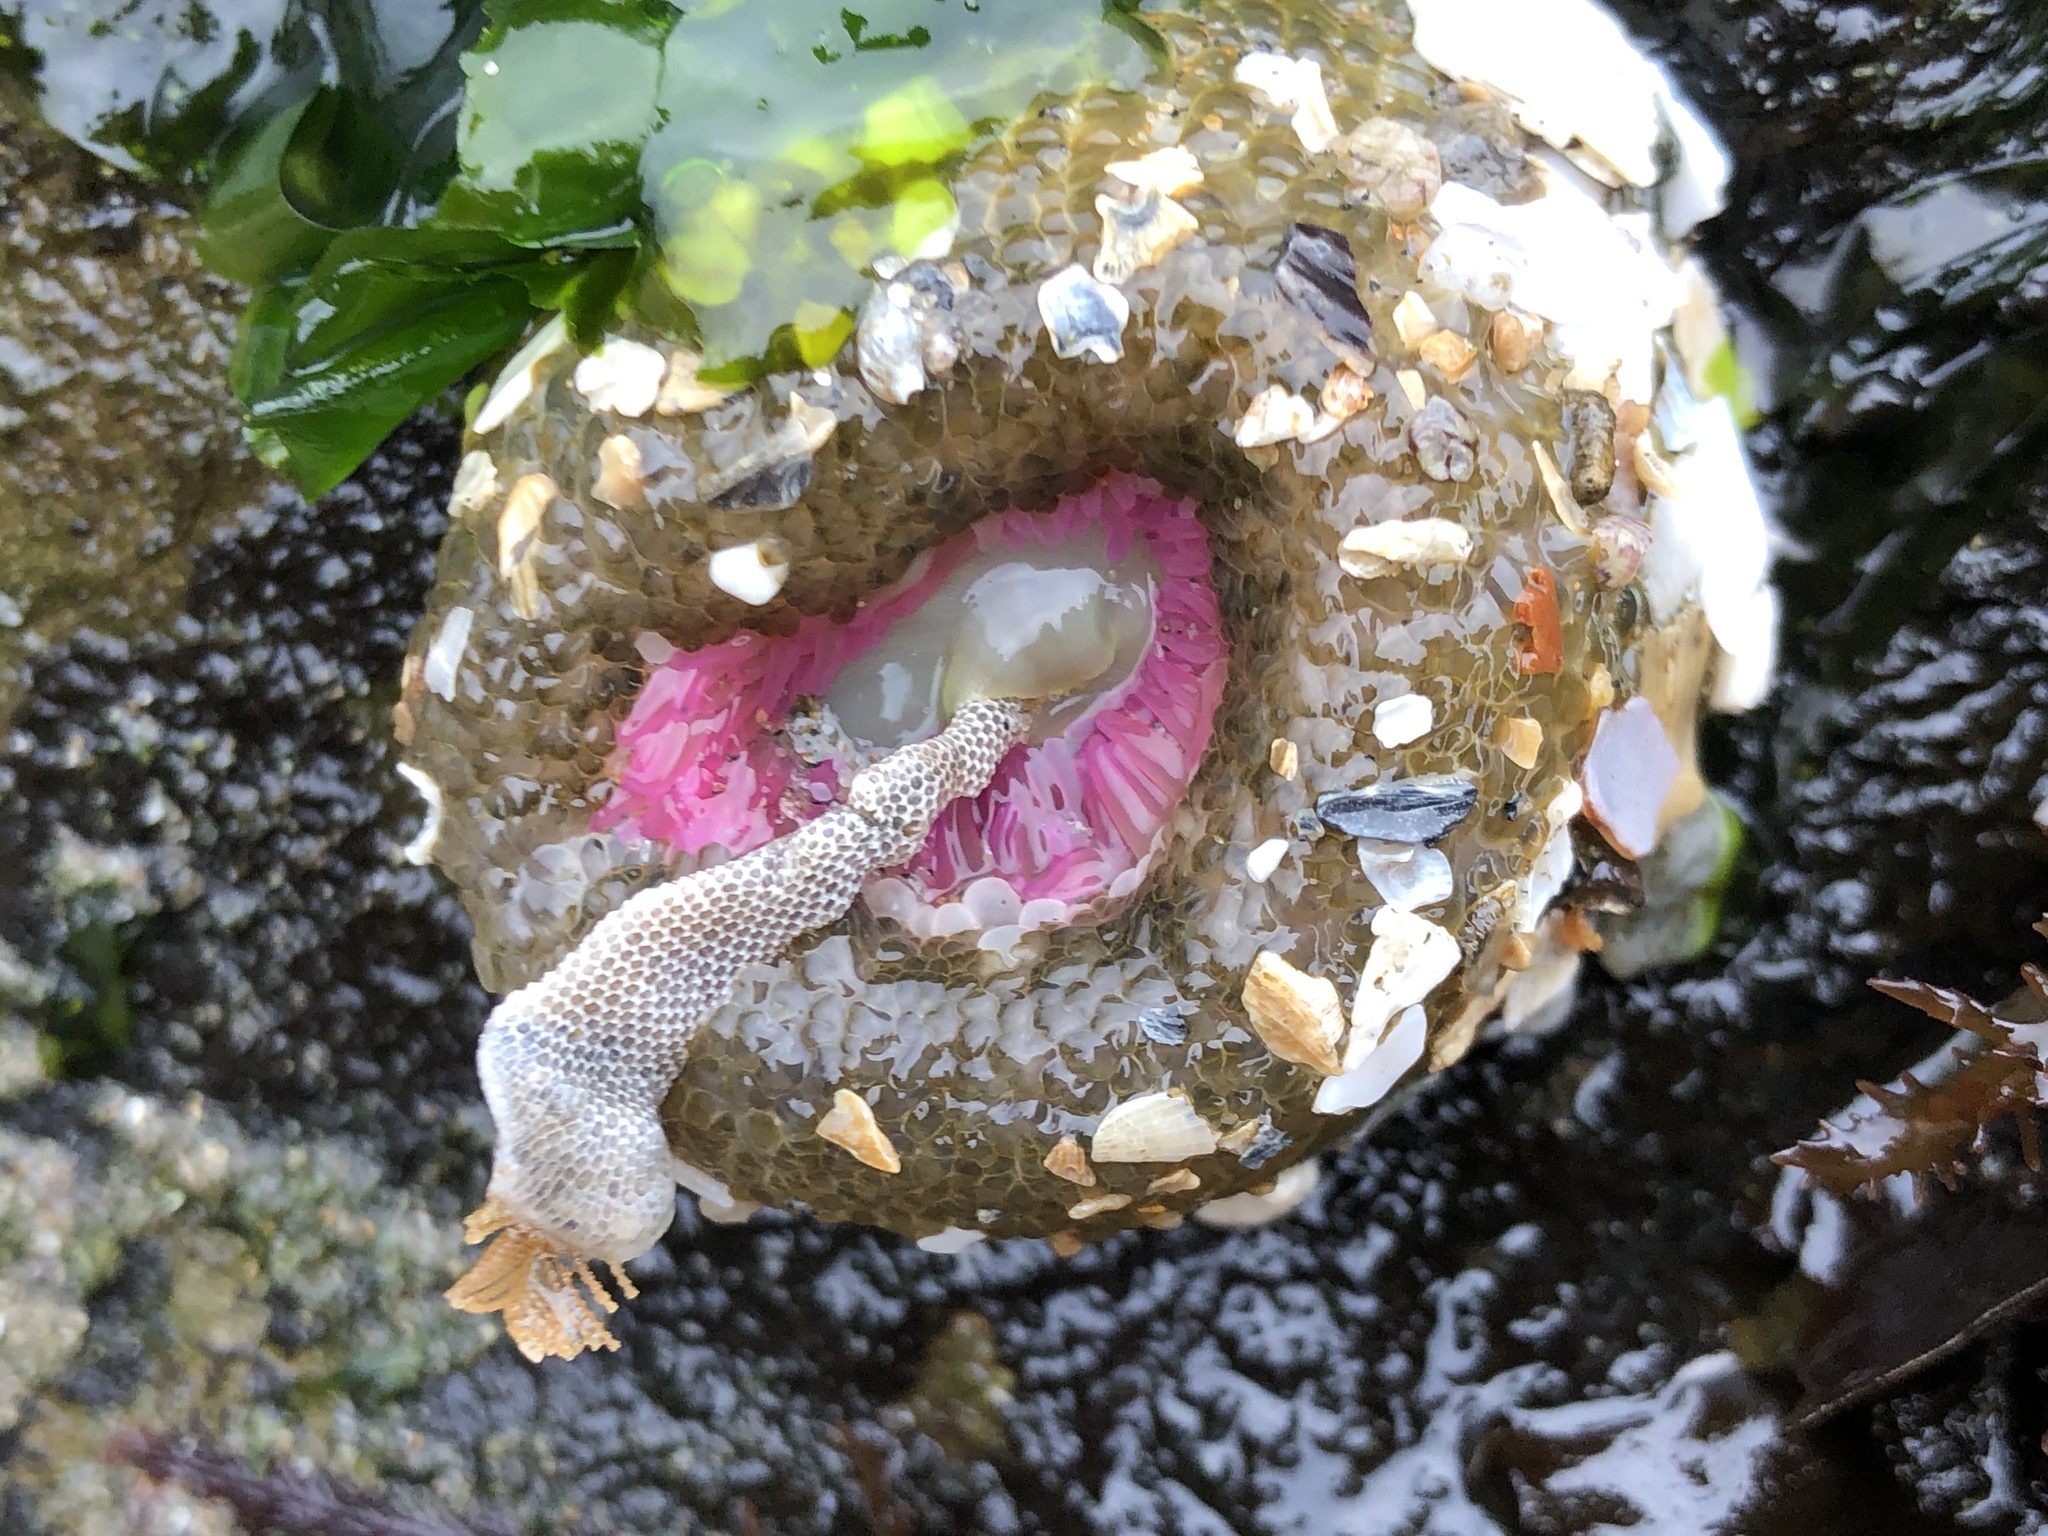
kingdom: Animalia
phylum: Cnidaria
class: Anthozoa
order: Actiniaria
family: Actiniidae
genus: Anthopleura
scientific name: Anthopleura elegantissima
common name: Clonal anemone
